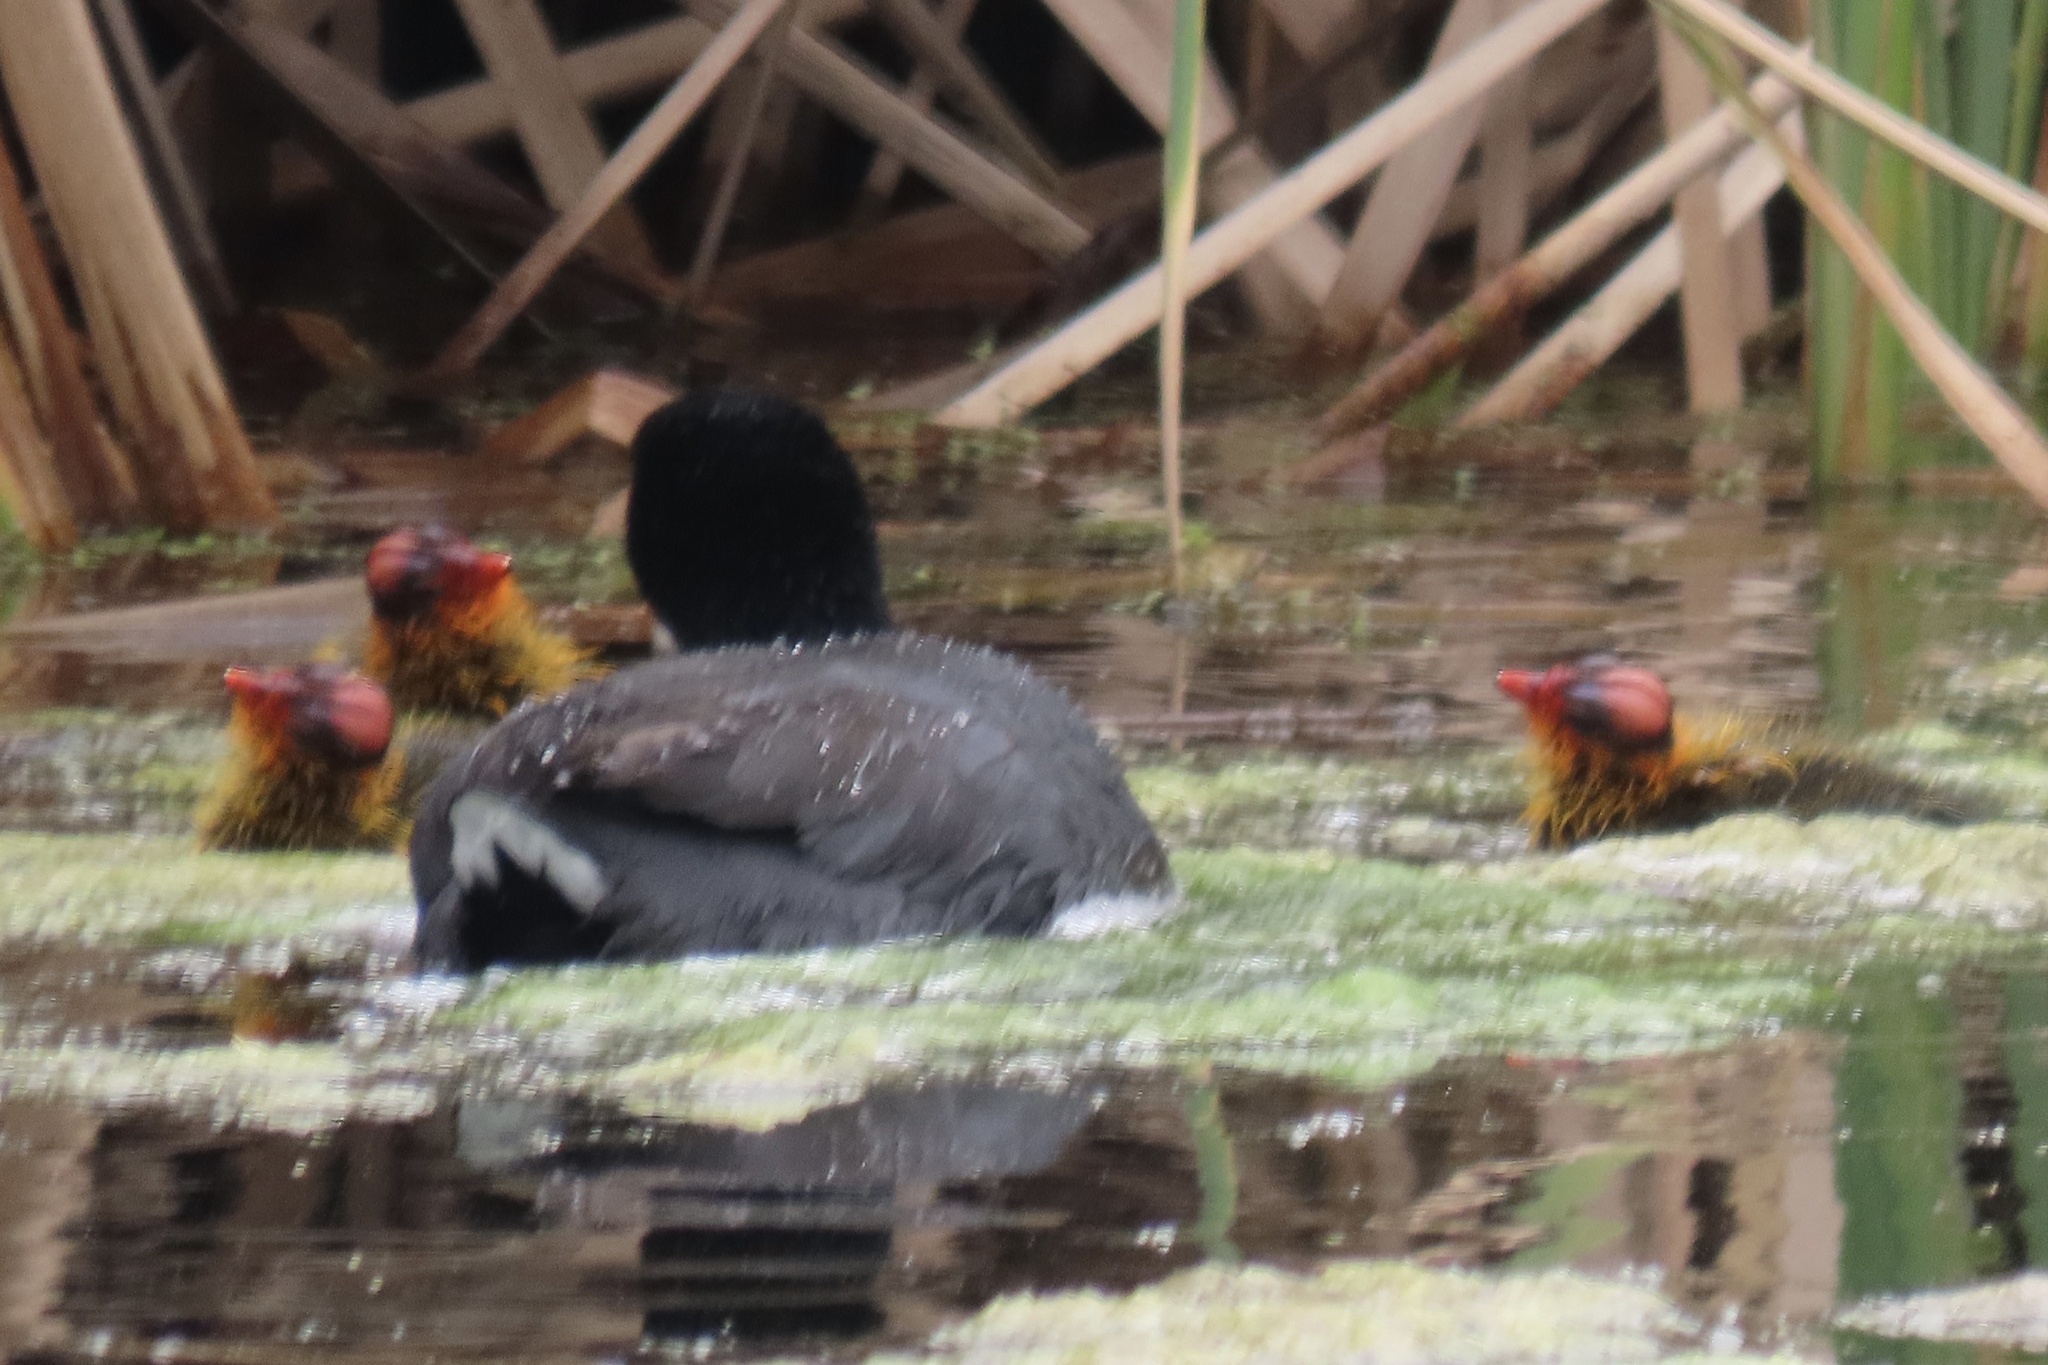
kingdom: Animalia
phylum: Chordata
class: Aves
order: Gruiformes
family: Rallidae
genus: Fulica
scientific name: Fulica americana
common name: American coot
